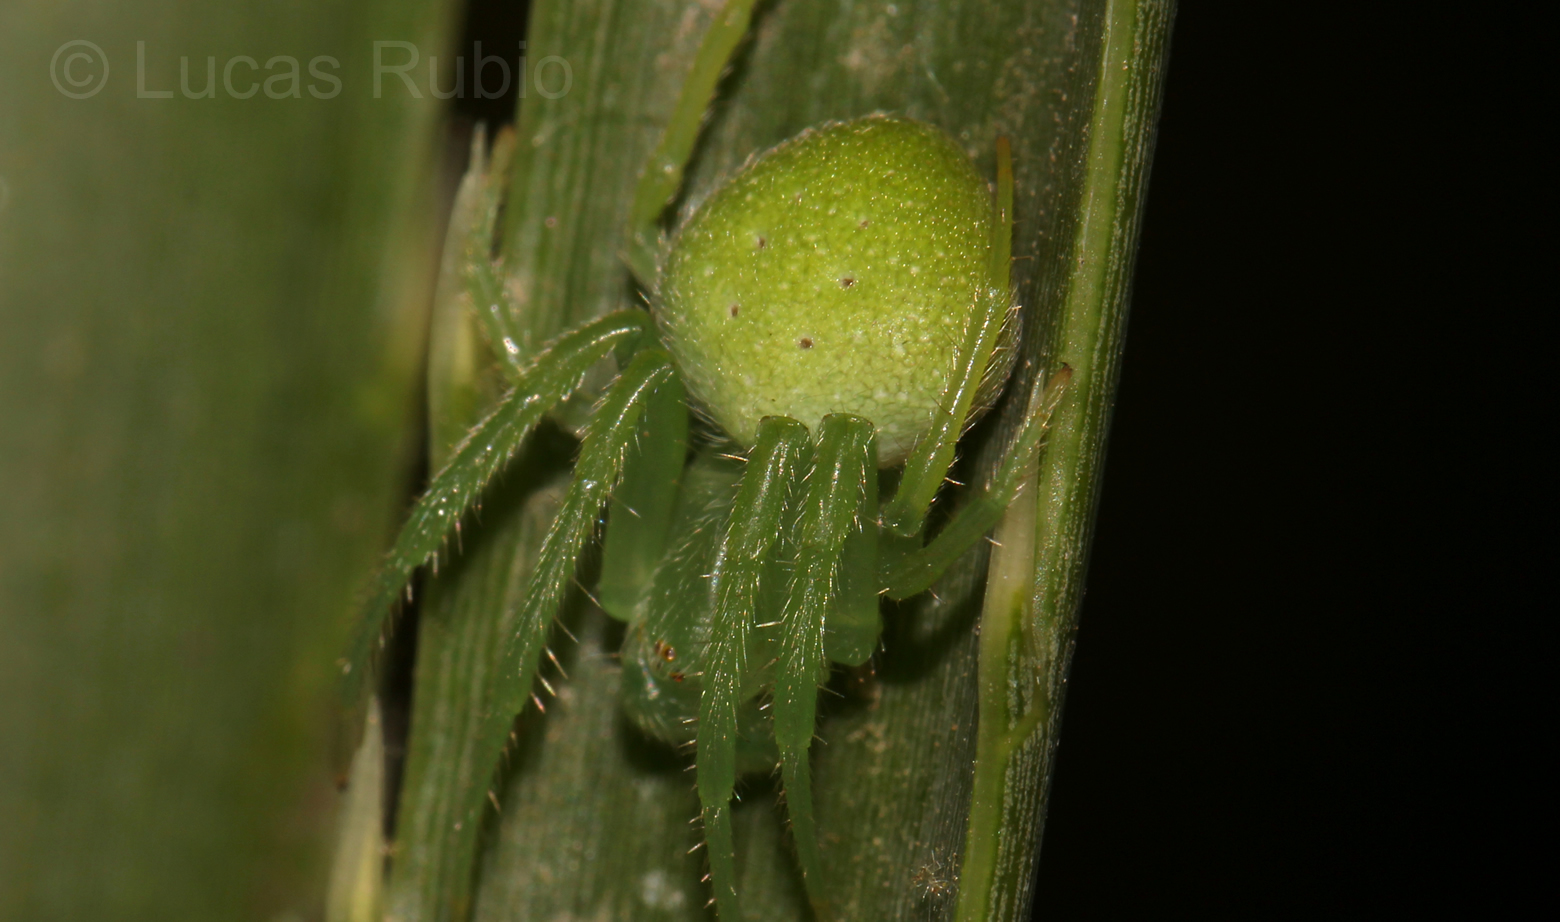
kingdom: Animalia
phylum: Arthropoda
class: Arachnida
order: Araneae
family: Araneidae
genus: Araneus
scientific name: Araneus uniformis
